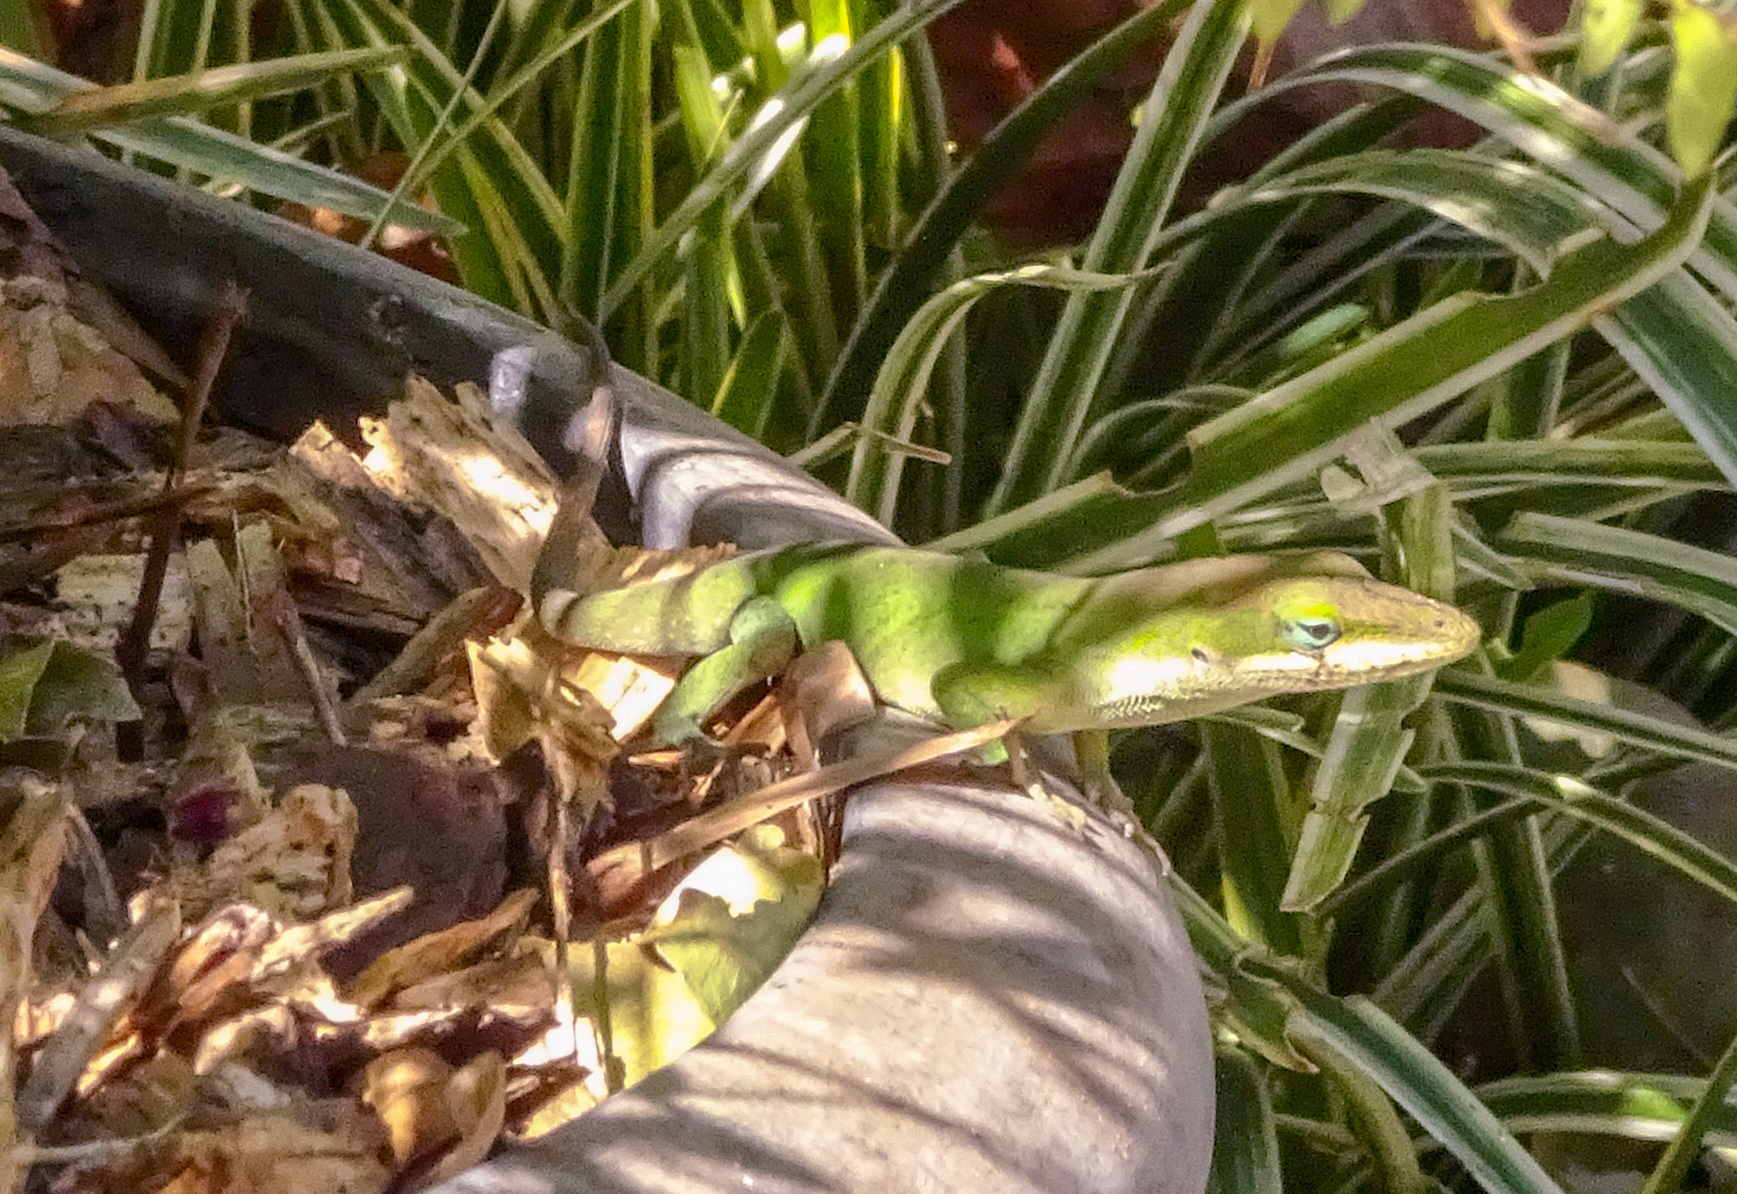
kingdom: Animalia
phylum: Chordata
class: Squamata
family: Dactyloidae
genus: Anolis
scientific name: Anolis carolinensis
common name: Green anole
